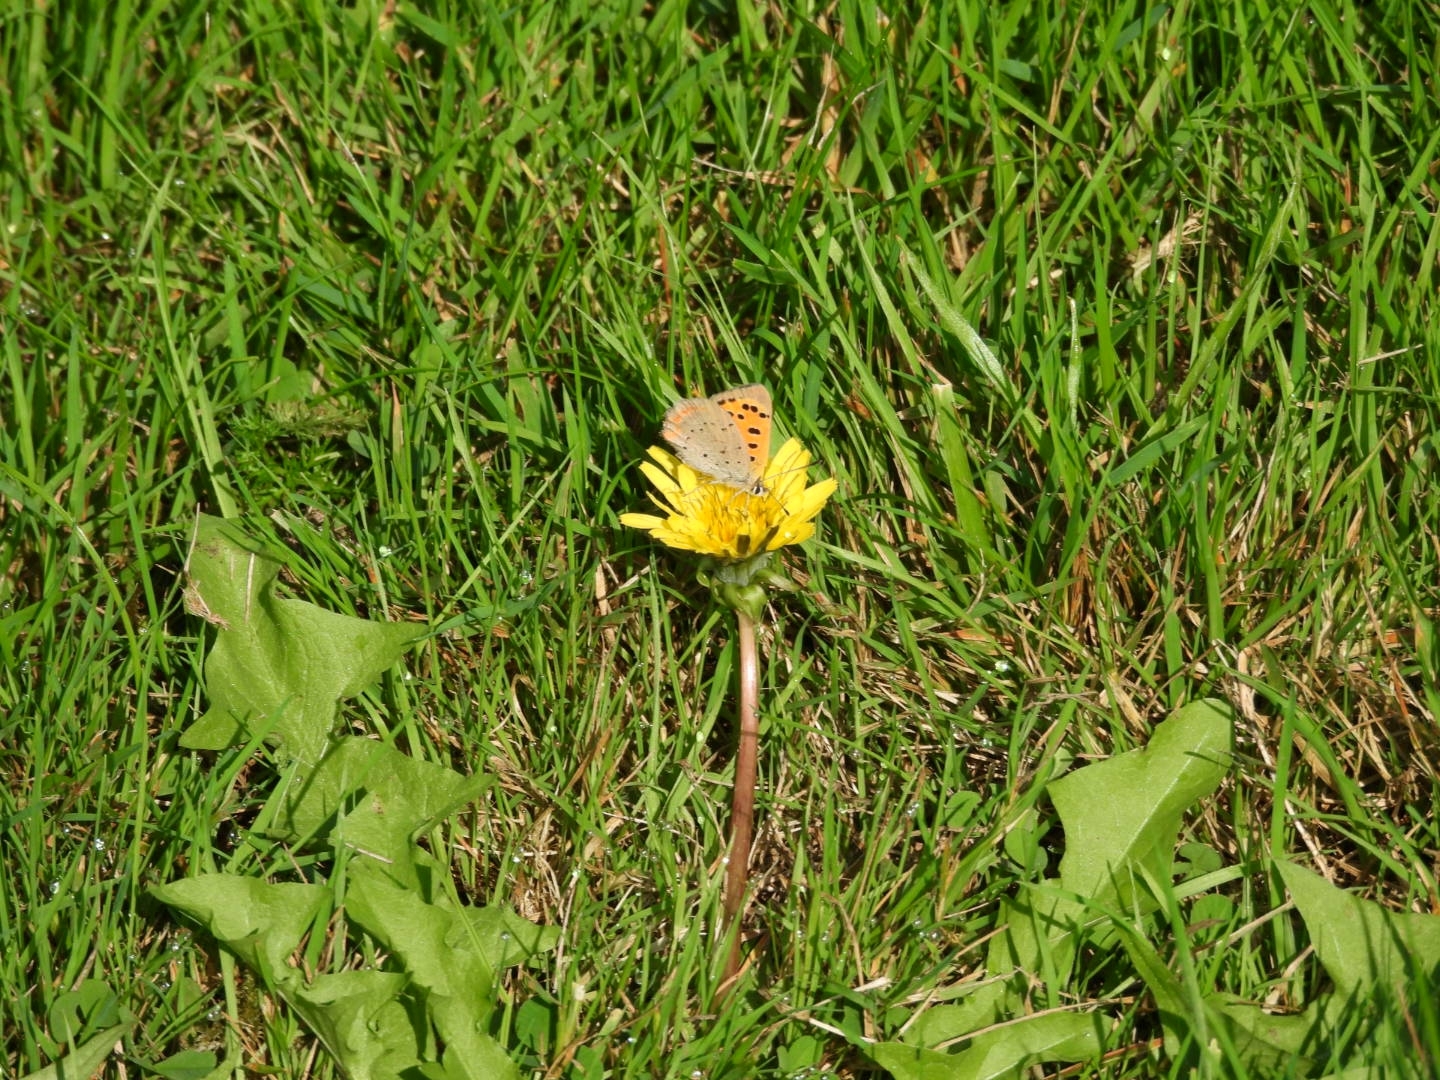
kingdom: Animalia
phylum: Arthropoda
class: Insecta
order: Lepidoptera
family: Lycaenidae
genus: Lycaena
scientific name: Lycaena phlaeas
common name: Small copper
